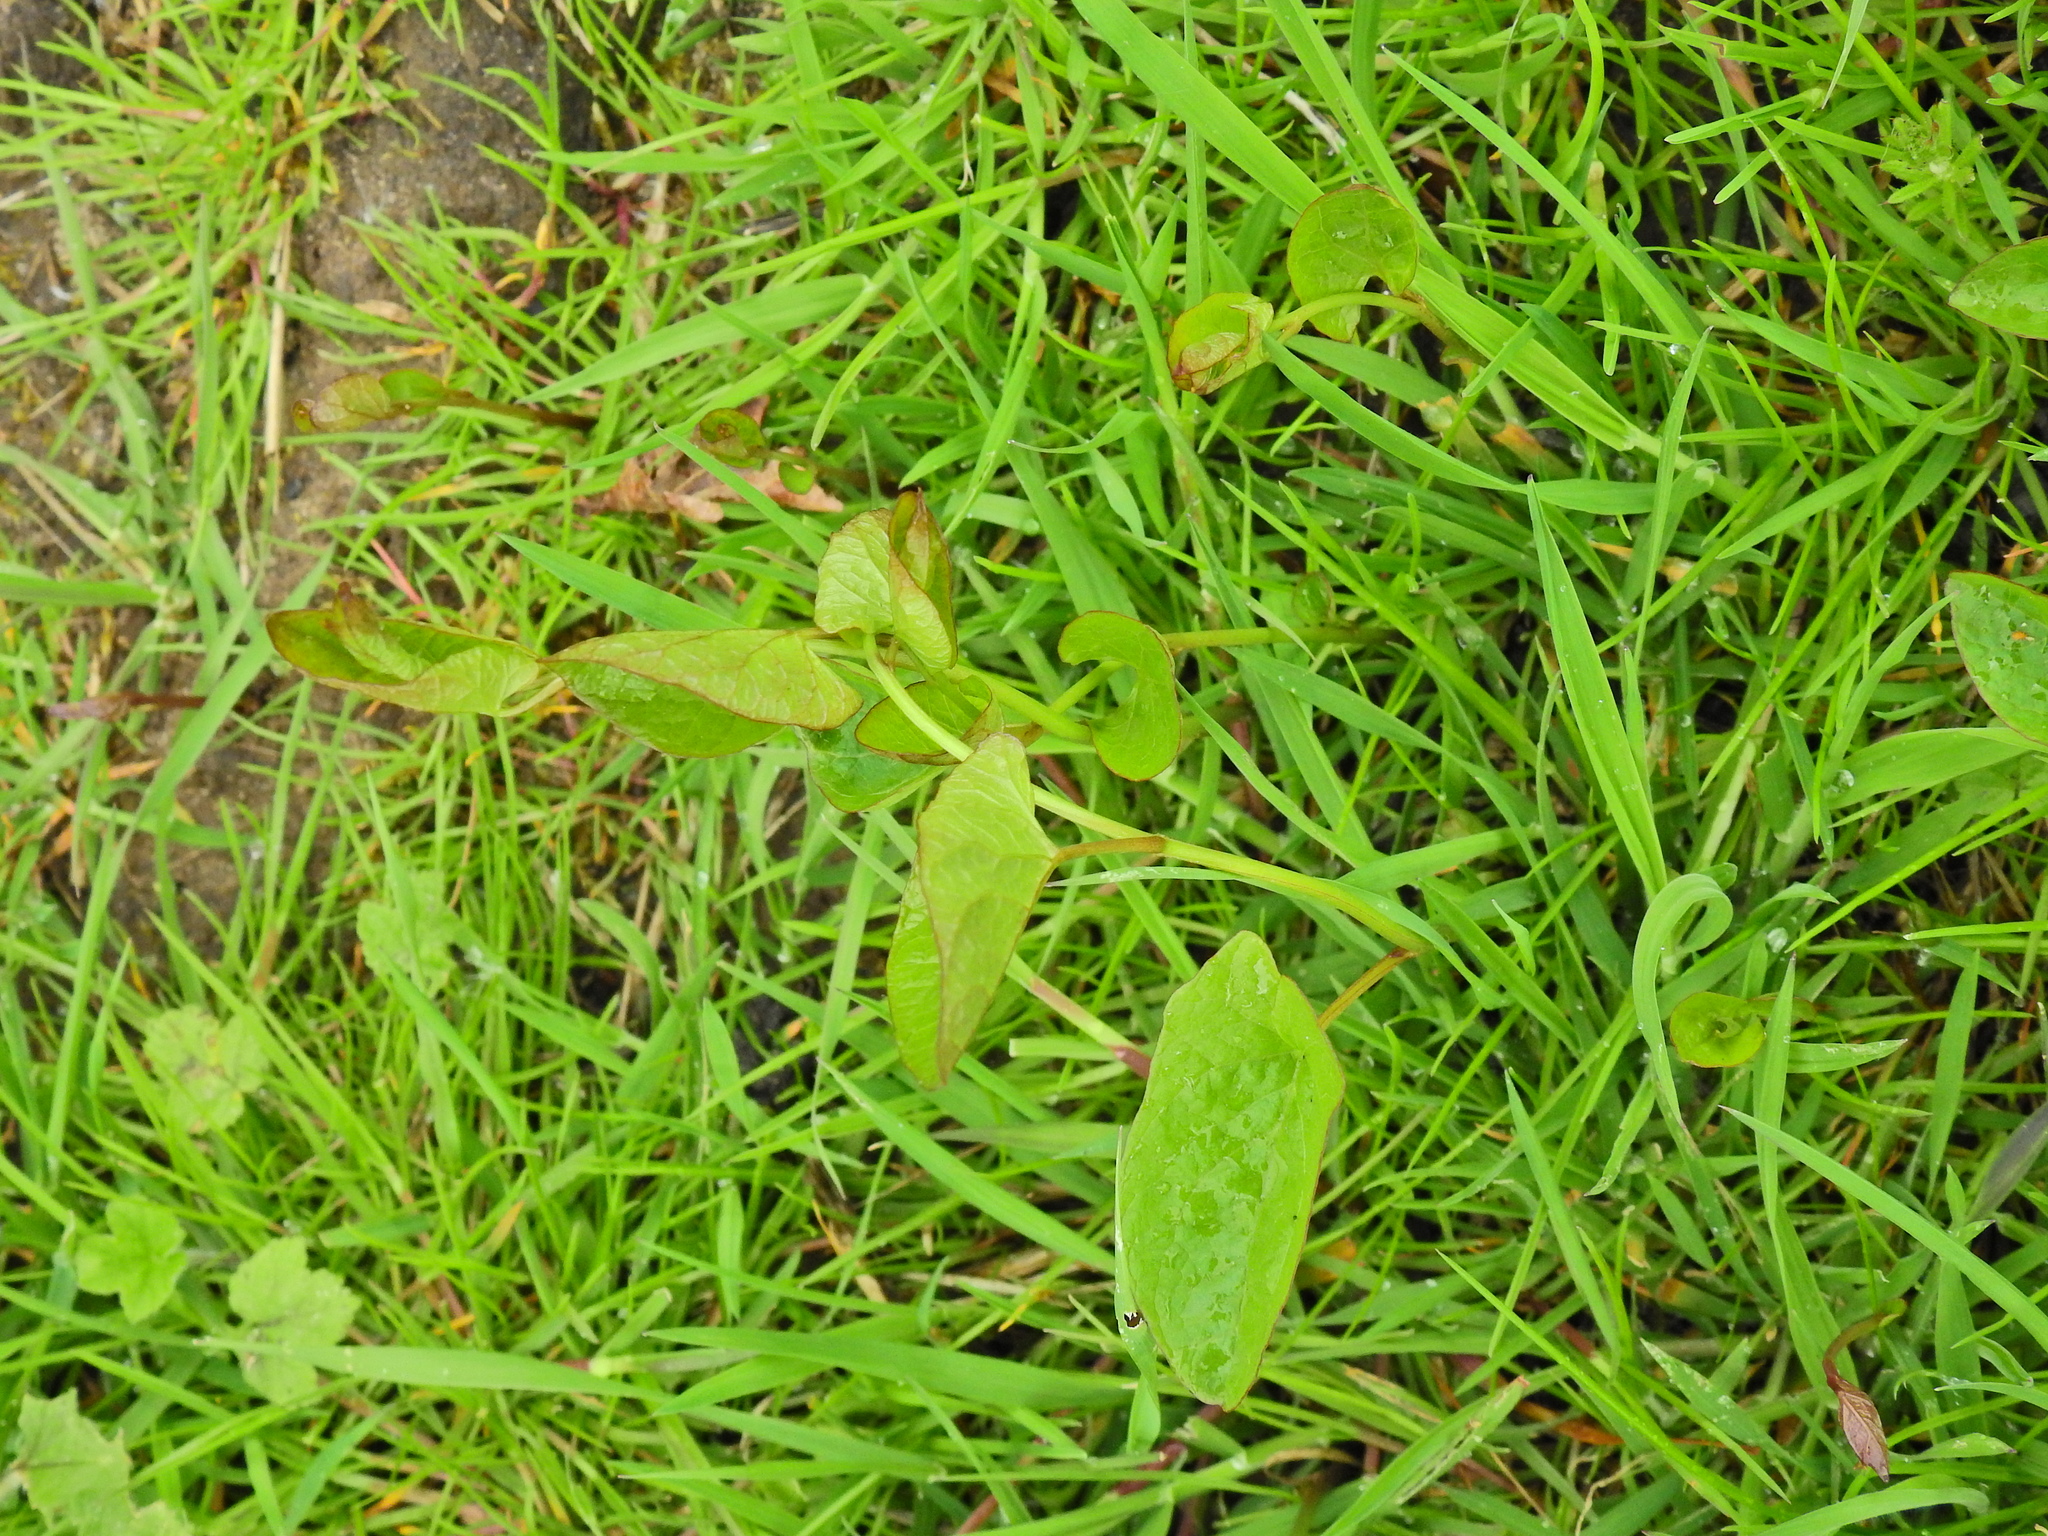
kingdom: Plantae
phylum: Tracheophyta
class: Magnoliopsida
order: Solanales
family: Convolvulaceae
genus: Convolvulus
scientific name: Convolvulus arvensis
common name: Field bindweed
